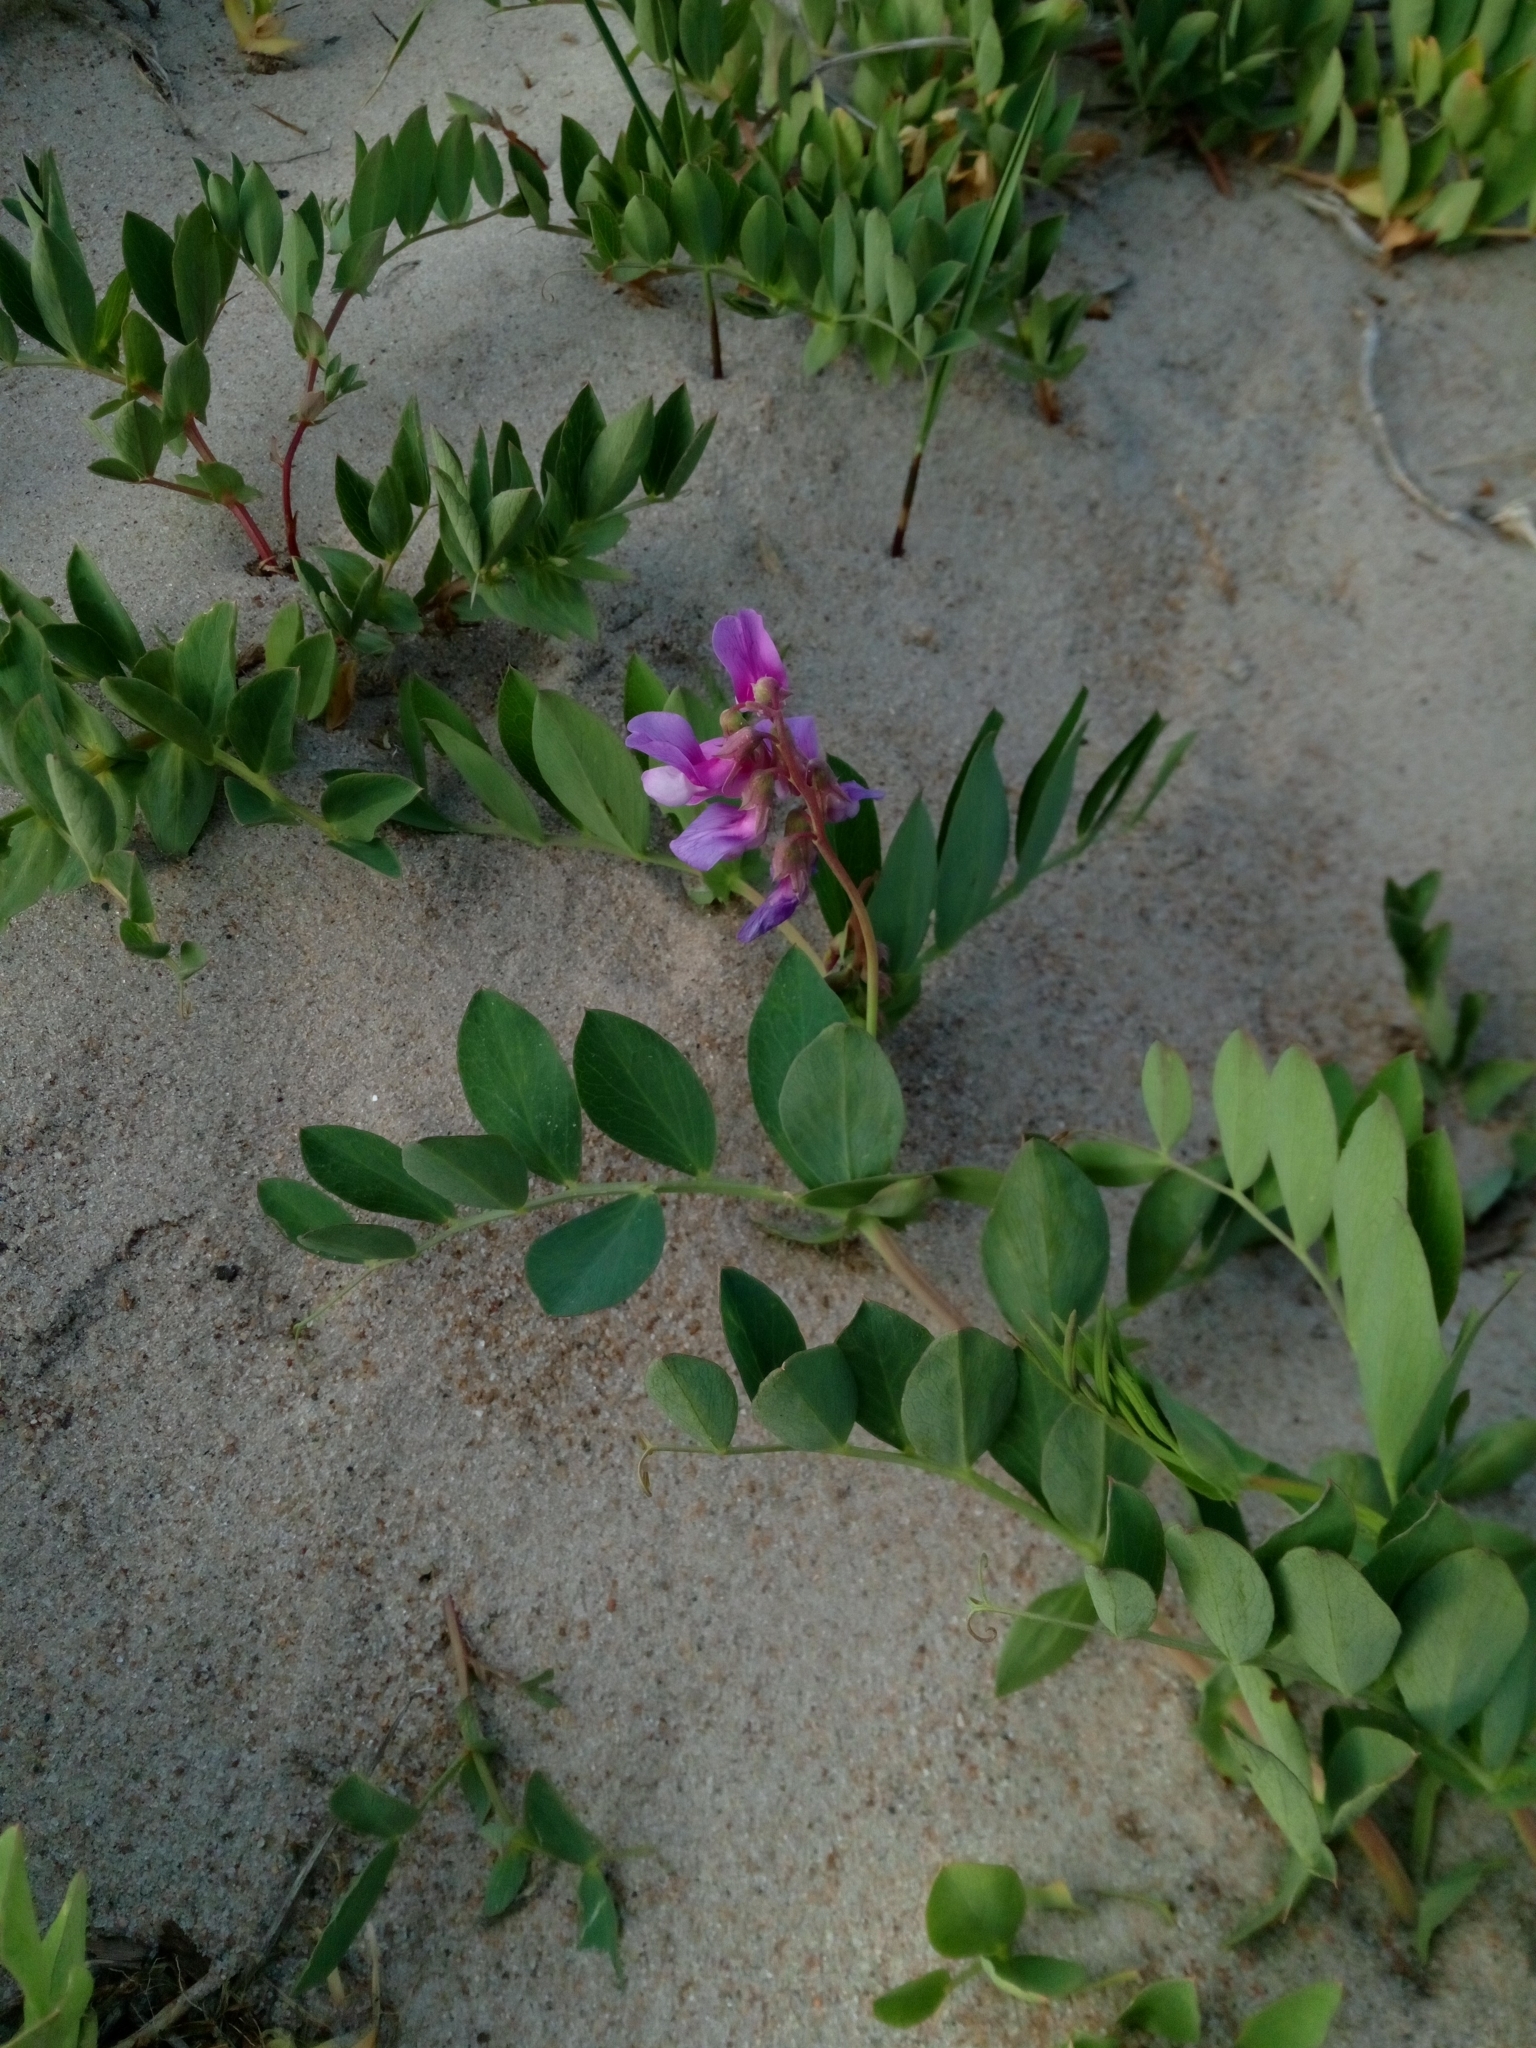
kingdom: Plantae
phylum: Tracheophyta
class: Magnoliopsida
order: Fabales
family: Fabaceae
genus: Lathyrus
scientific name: Lathyrus japonicus
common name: Sea pea
